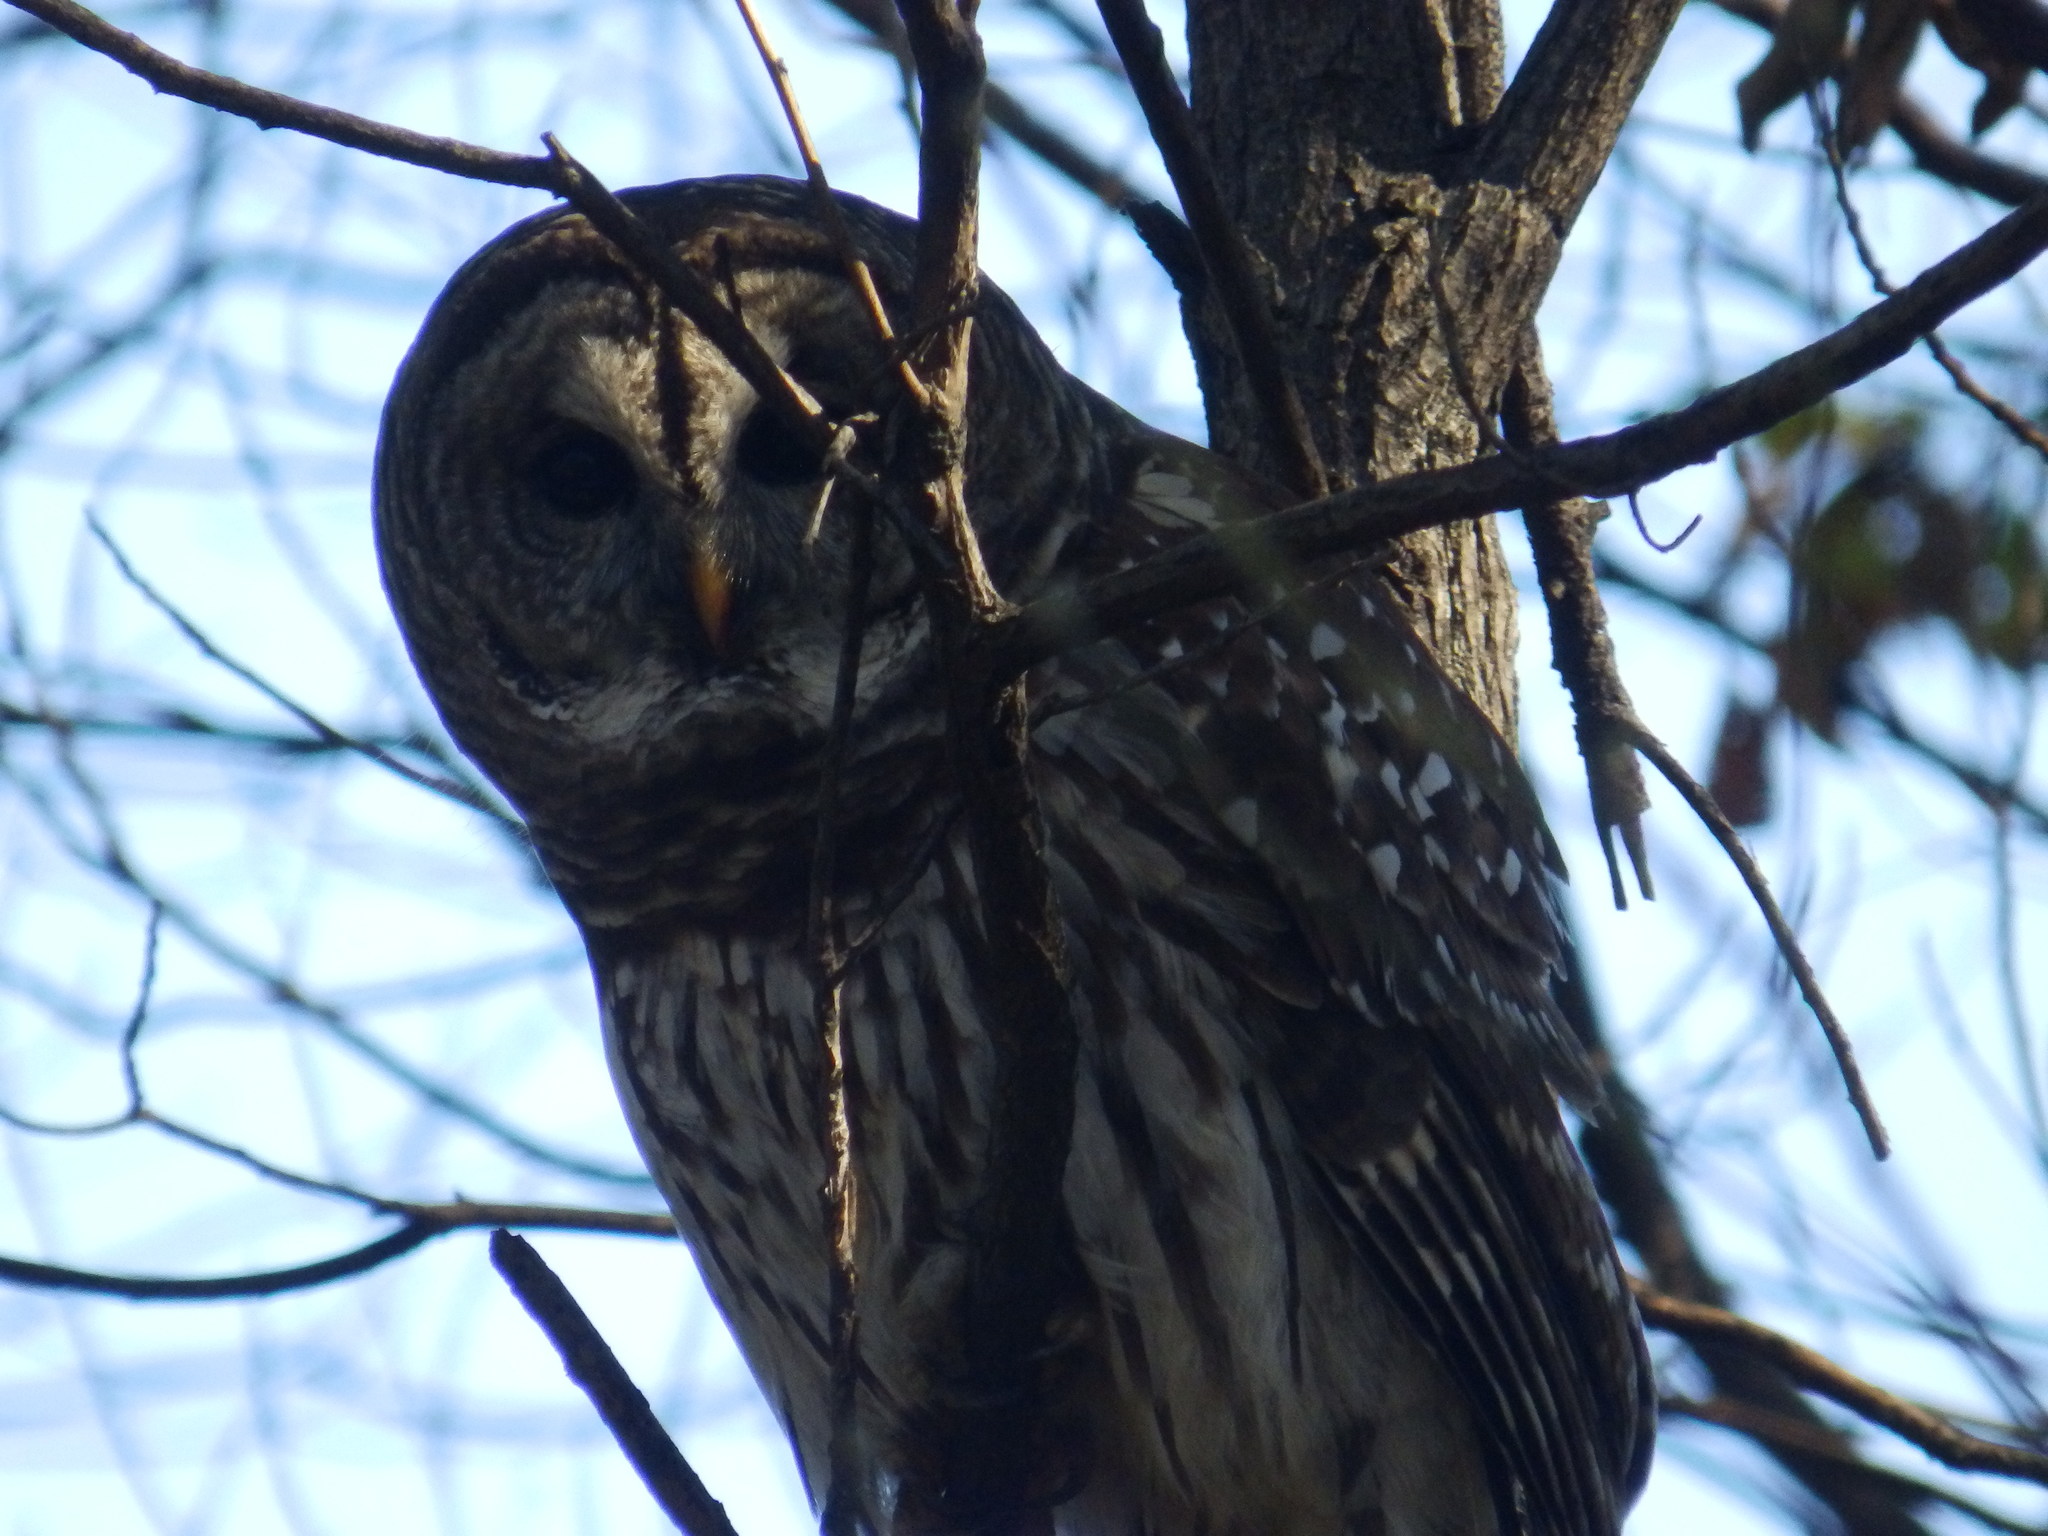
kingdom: Animalia
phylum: Chordata
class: Aves
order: Strigiformes
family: Strigidae
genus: Strix
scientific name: Strix varia
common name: Barred owl
